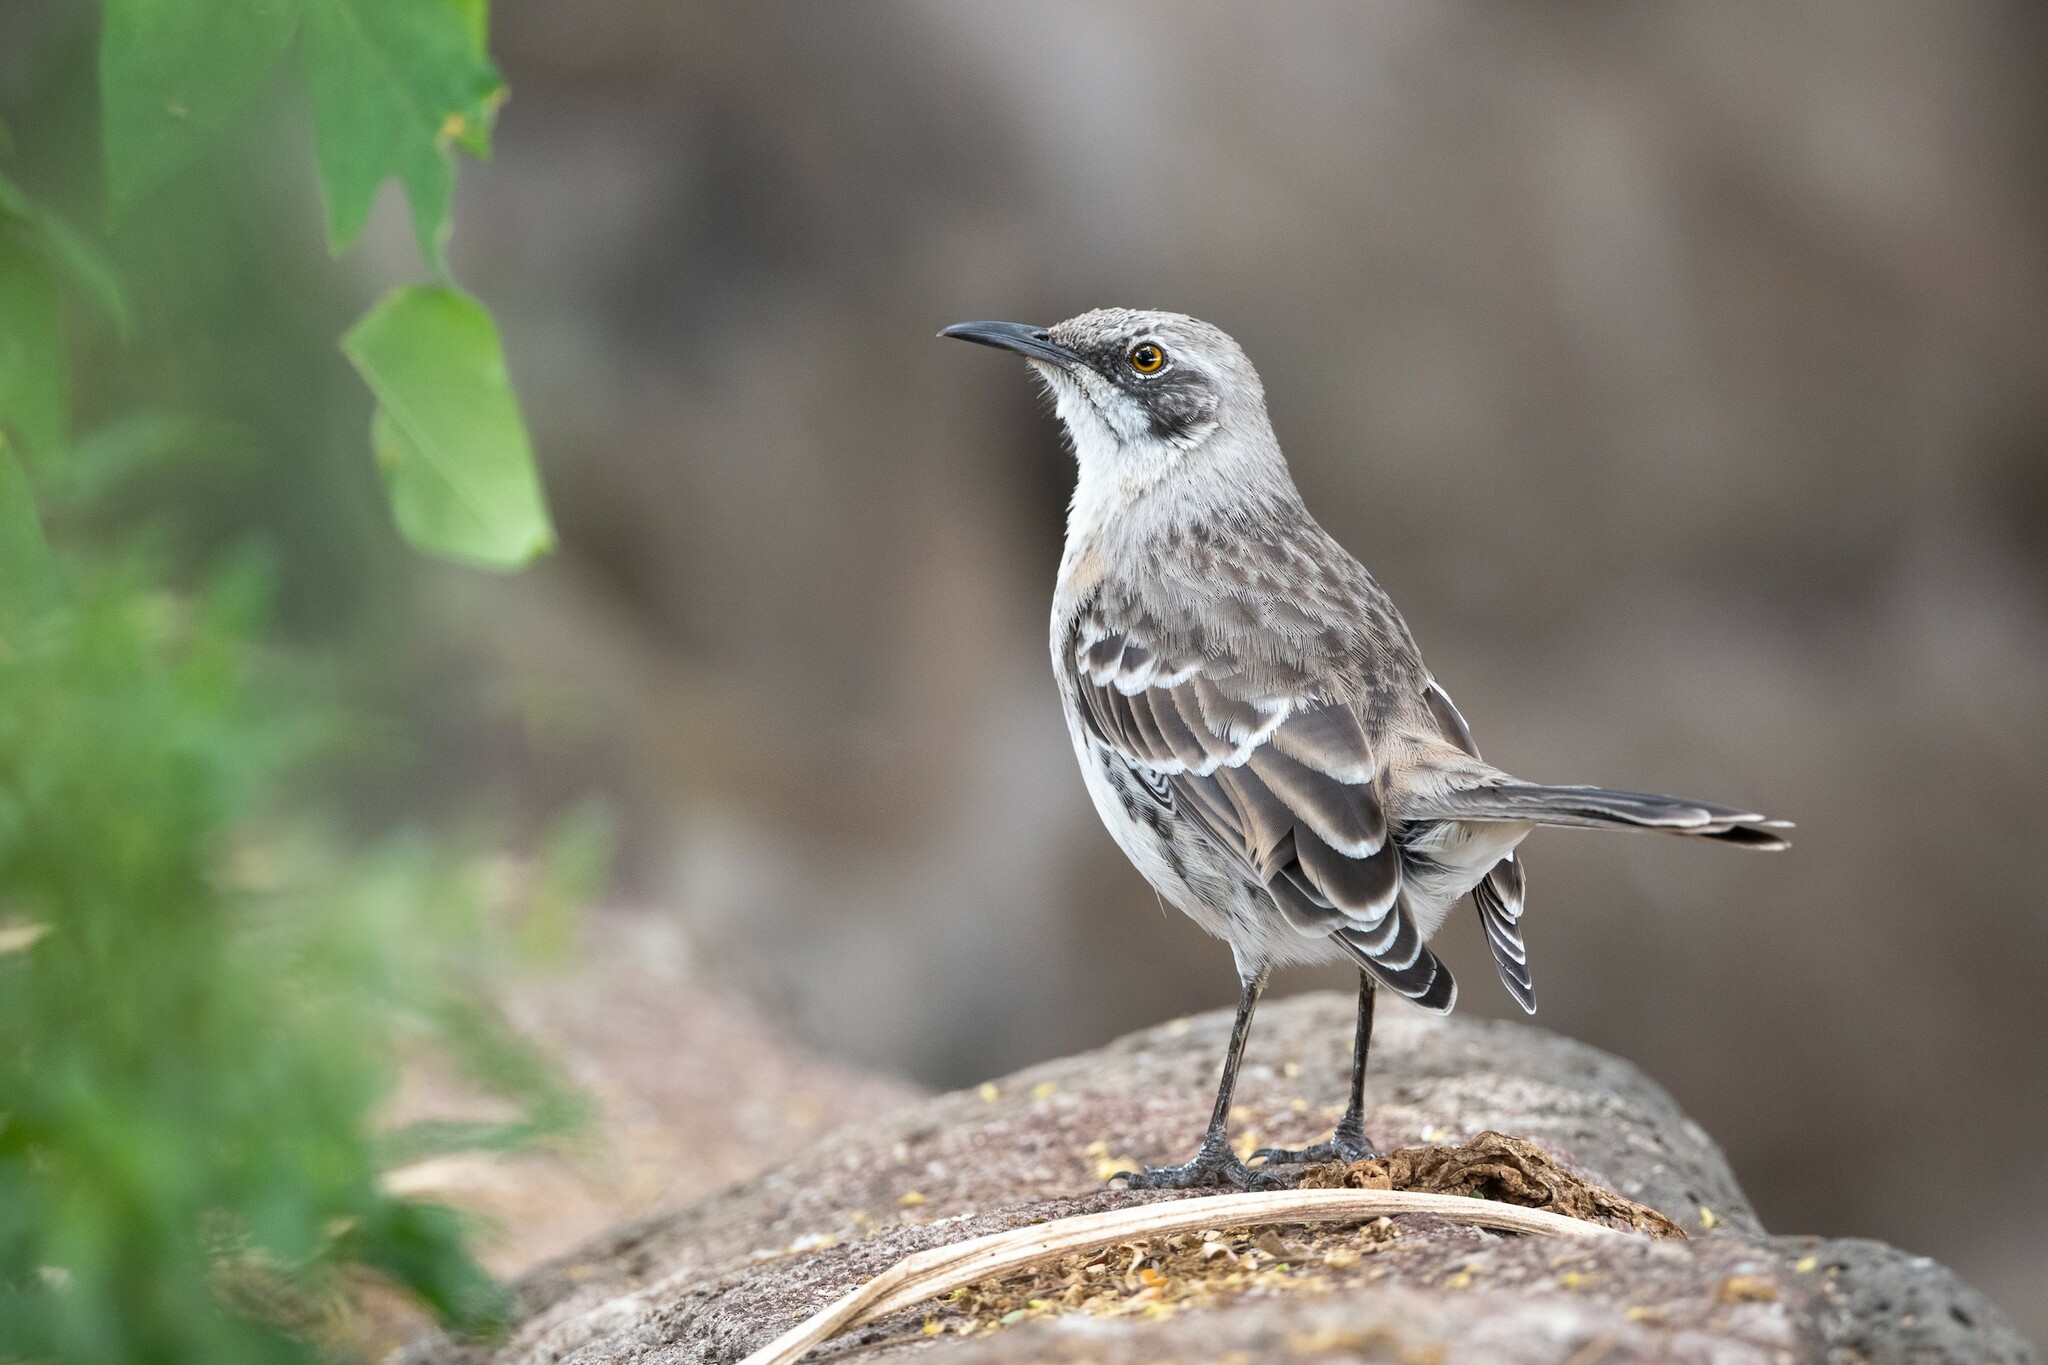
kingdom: Animalia
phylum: Chordata
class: Aves
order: Passeriformes
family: Mimidae
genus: Mimus
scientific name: Mimus melanotis
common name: San cristobal mockingbird
